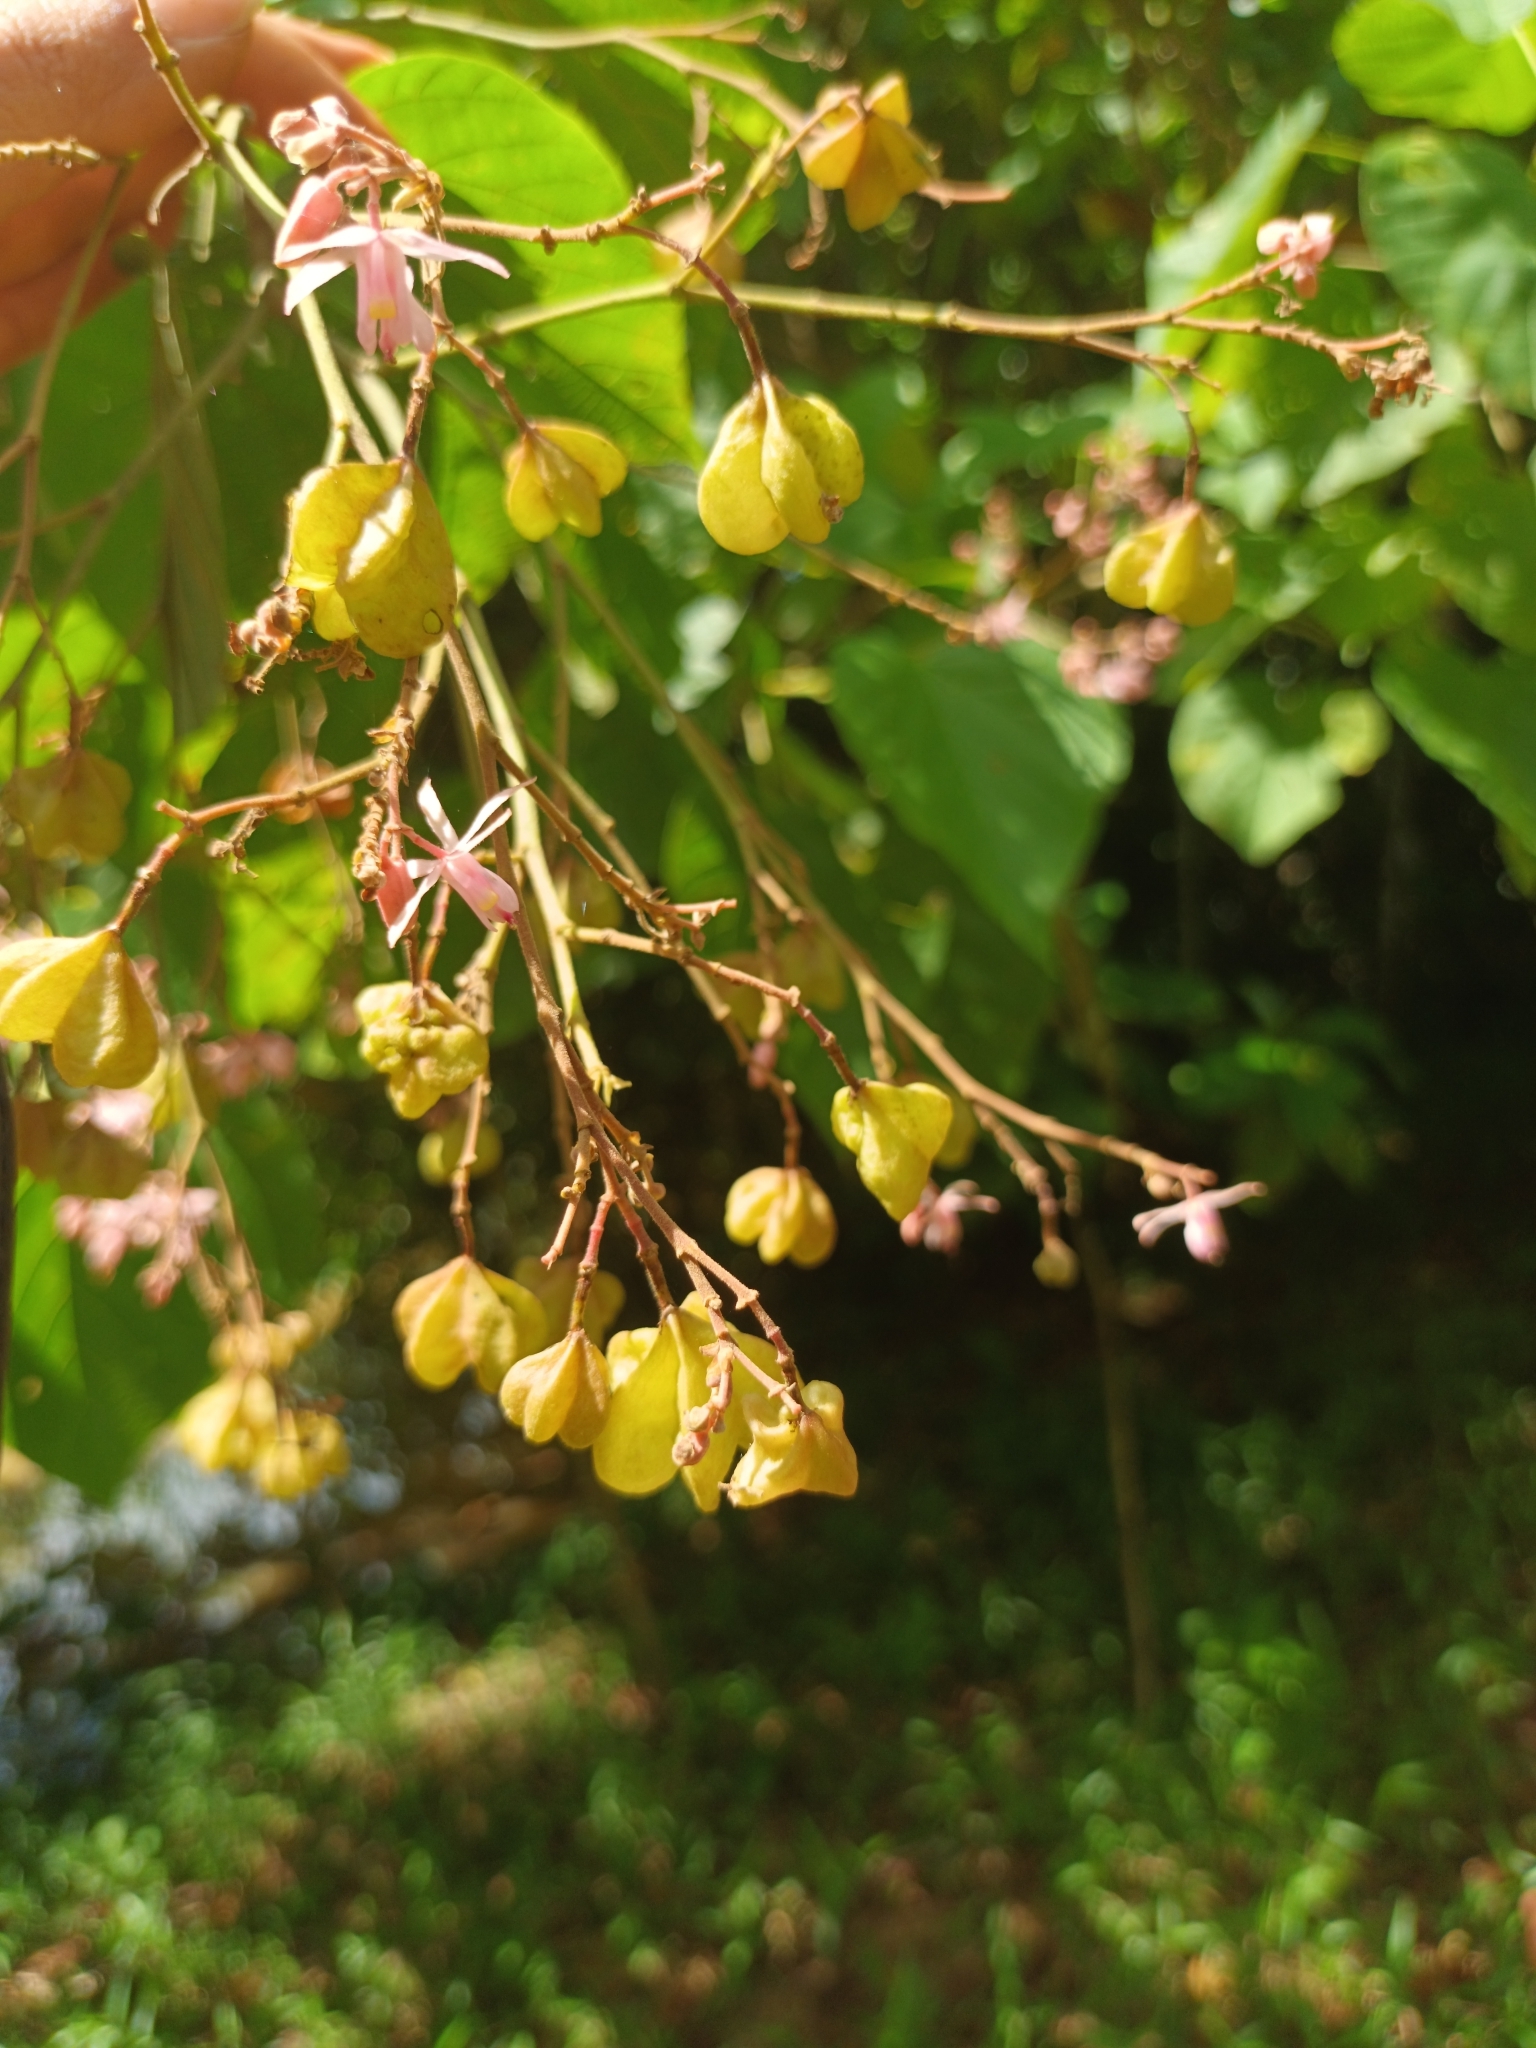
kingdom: Plantae
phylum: Tracheophyta
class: Magnoliopsida
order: Malvales
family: Malvaceae
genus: Kleinhovia
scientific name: Kleinhovia hospita
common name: Guest-tree
